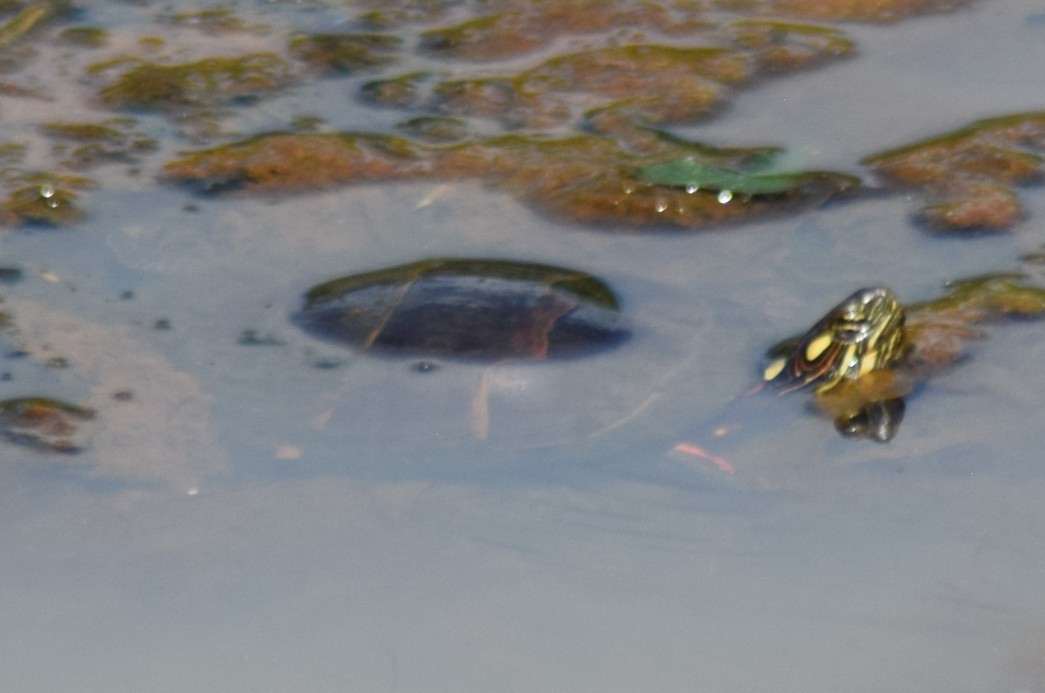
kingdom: Animalia
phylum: Chordata
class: Testudines
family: Emydidae
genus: Chrysemys
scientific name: Chrysemys picta
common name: Painted turtle
